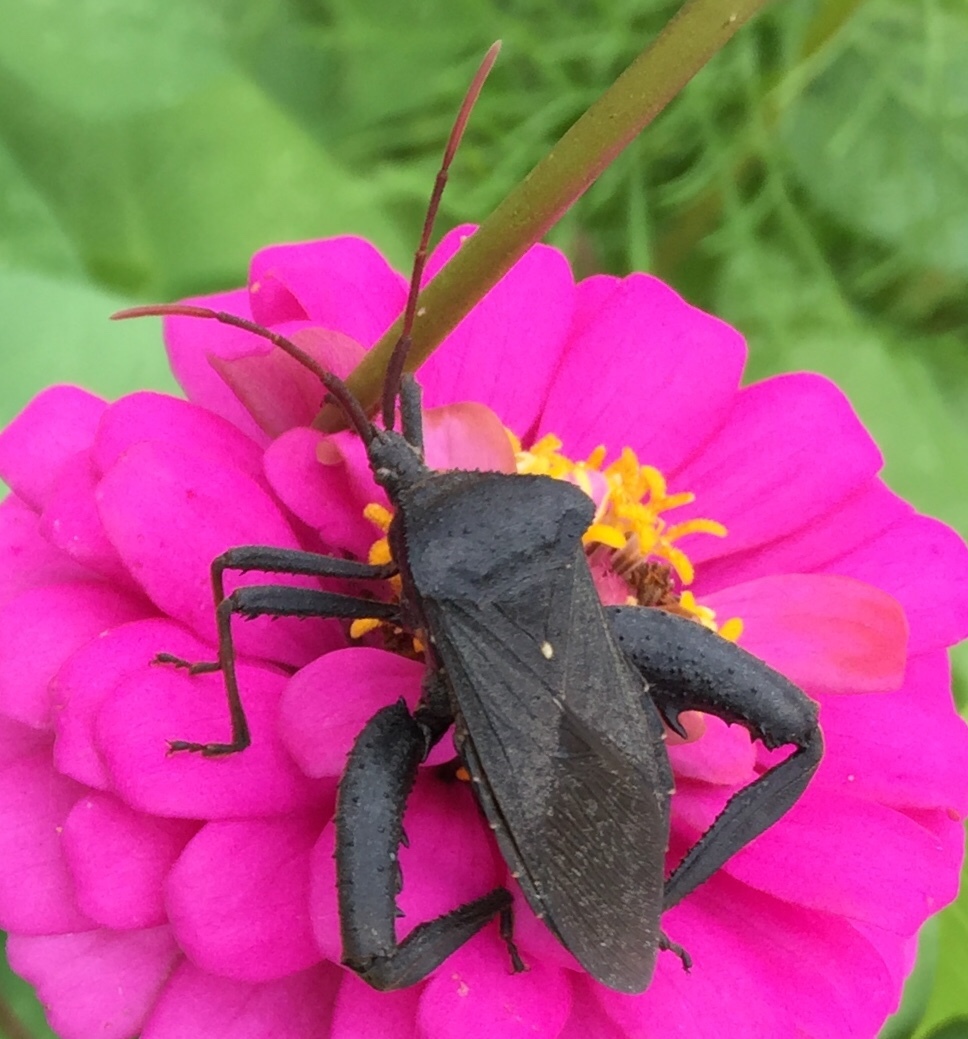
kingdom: Animalia
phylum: Arthropoda
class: Insecta
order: Hemiptera
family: Coreidae
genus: Acanthocephala
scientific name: Acanthocephala femorata
